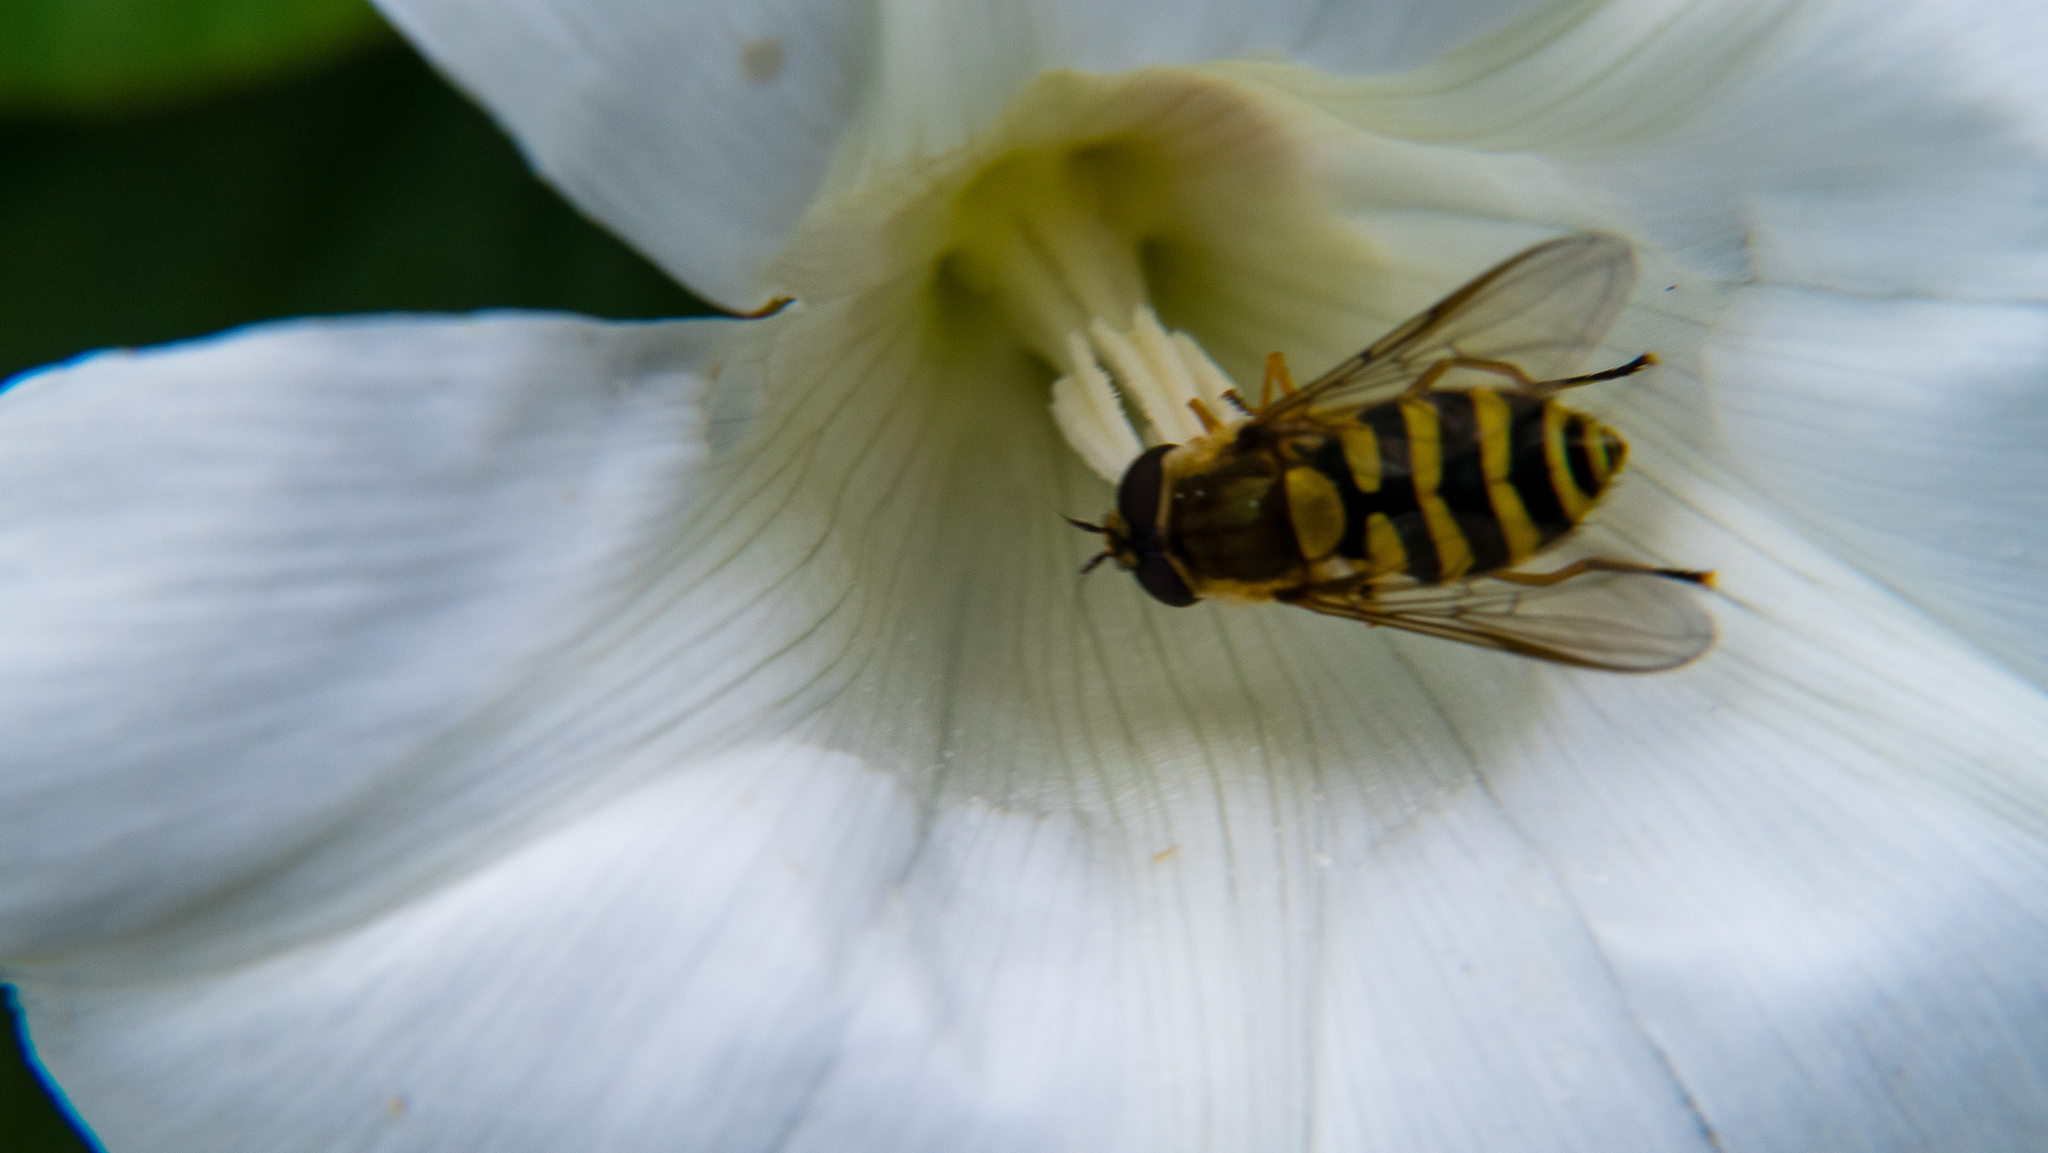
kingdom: Animalia
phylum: Arthropoda
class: Insecta
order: Diptera
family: Syrphidae
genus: Syrphus
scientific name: Syrphus
